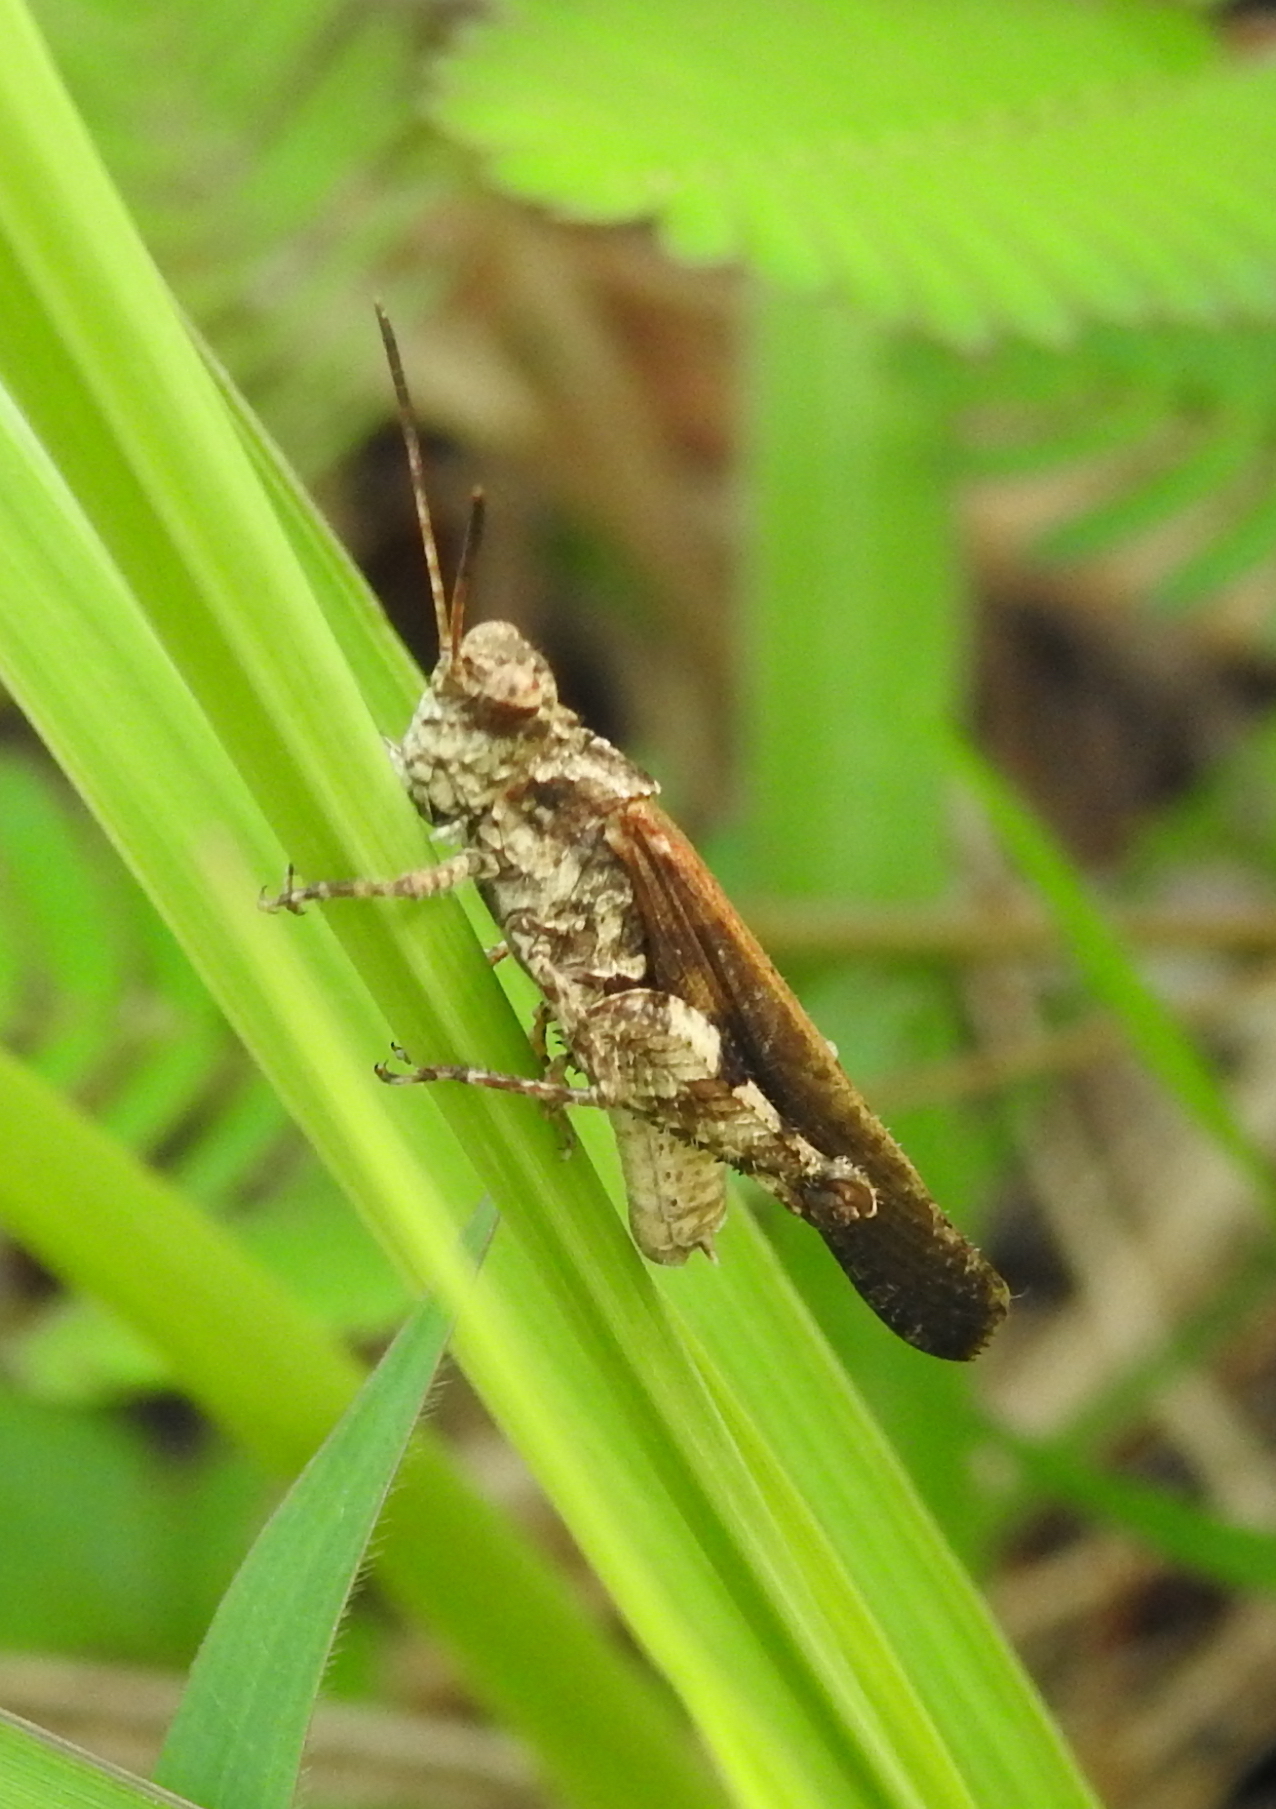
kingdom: Animalia
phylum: Arthropoda
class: Insecta
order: Orthoptera
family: Acrididae
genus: Trilophidia
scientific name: Trilophidia annulata
